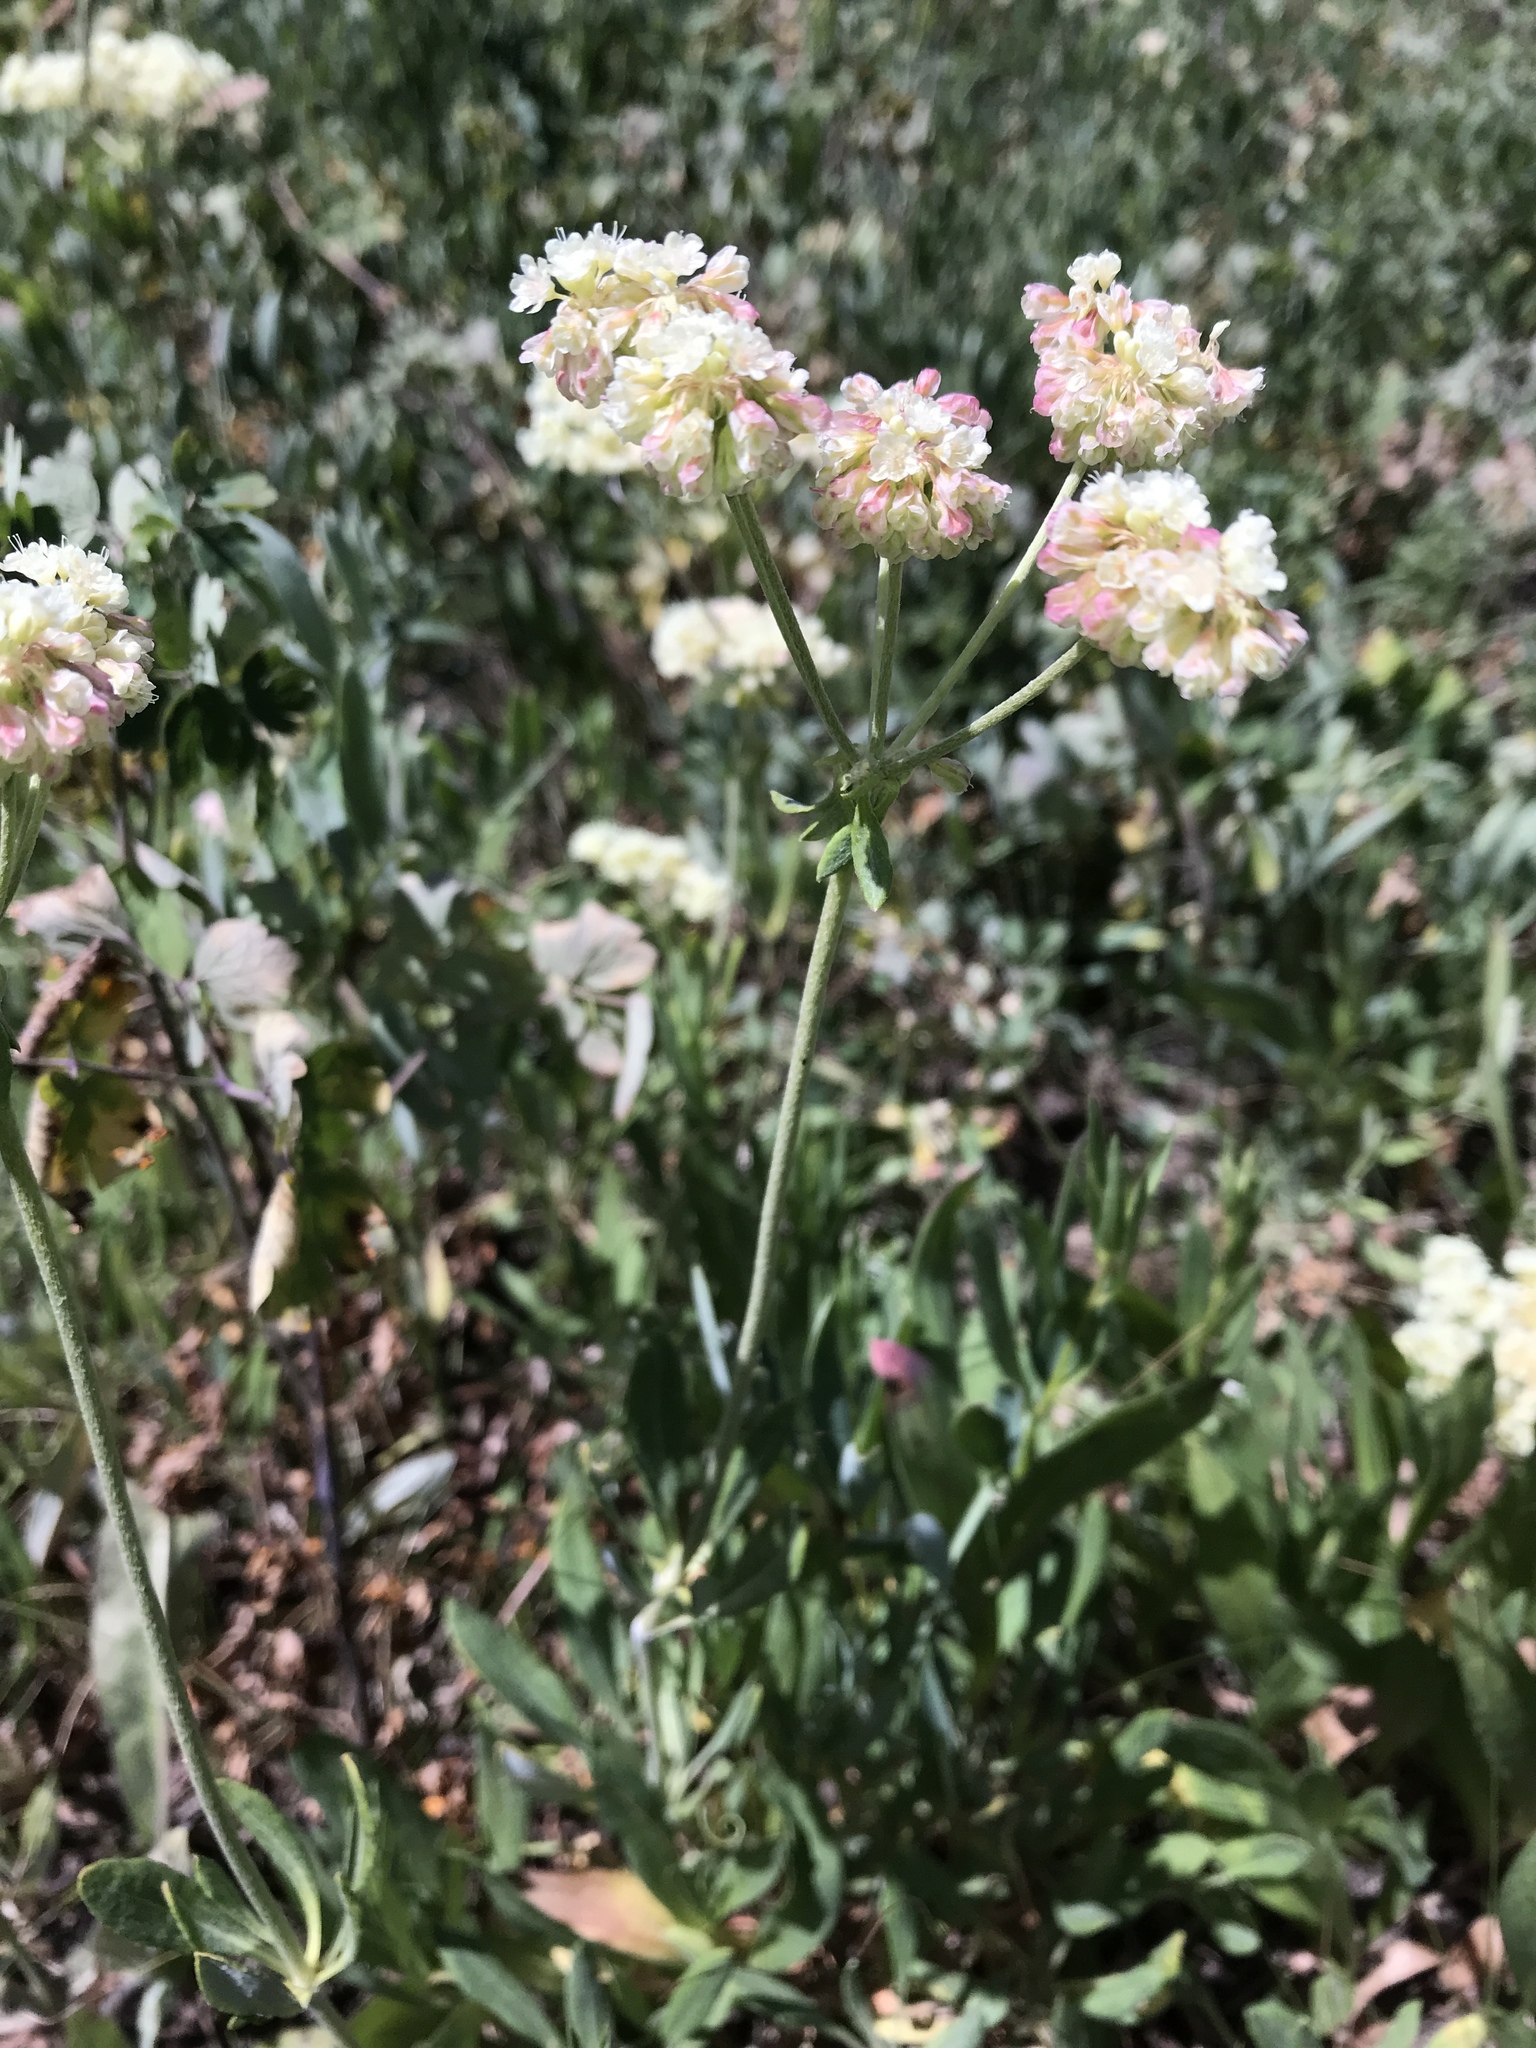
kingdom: Plantae
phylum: Tracheophyta
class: Magnoliopsida
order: Caryophyllales
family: Polygonaceae
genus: Eriogonum
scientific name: Eriogonum heracleoides
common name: Wyeth's buckwheat
